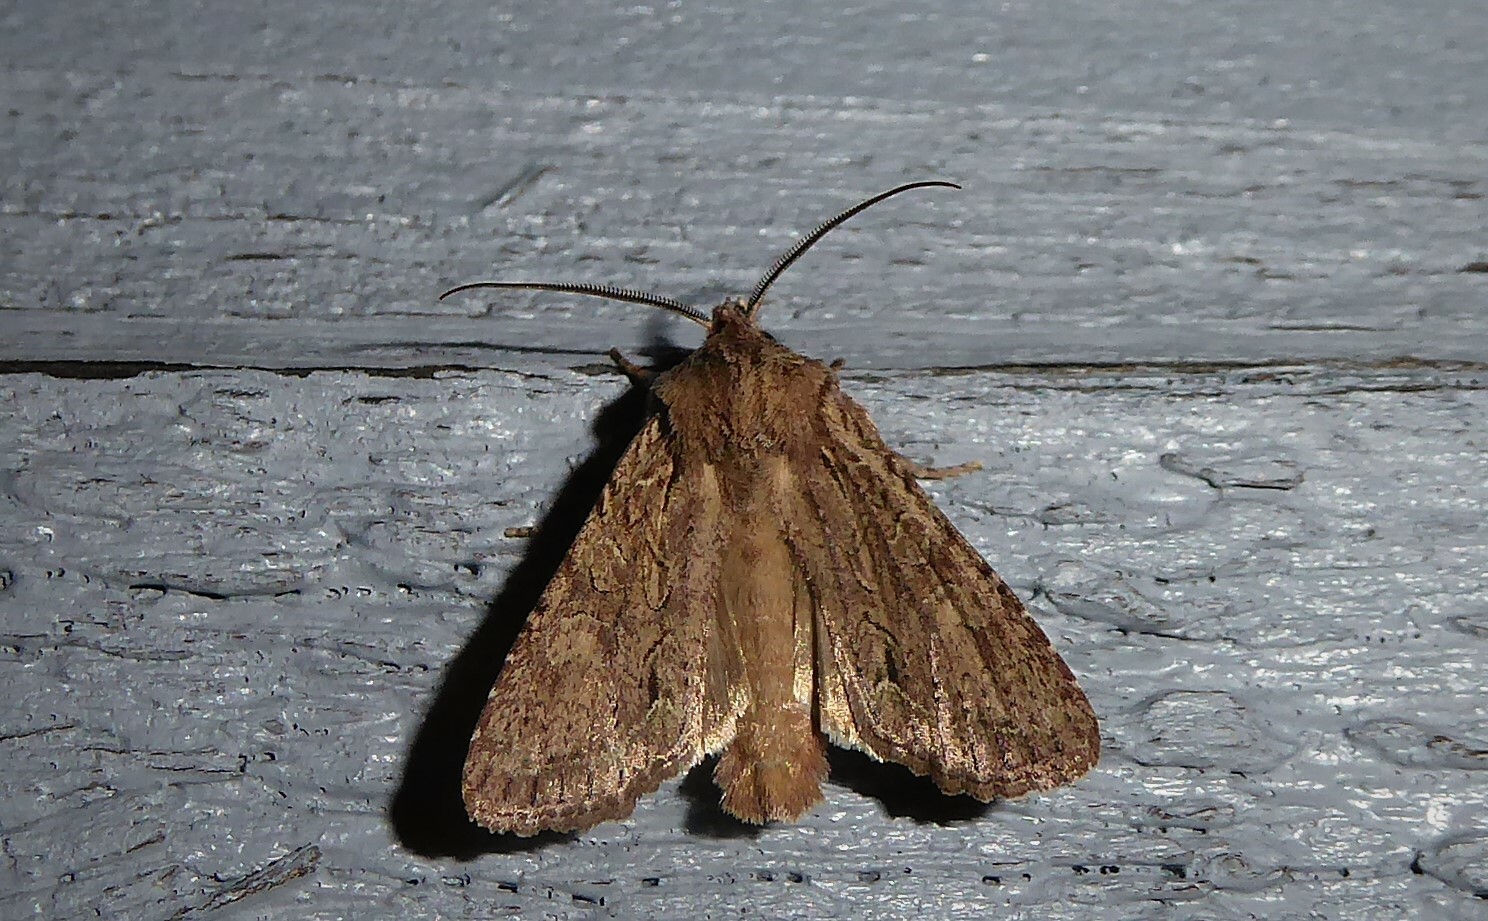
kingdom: Animalia
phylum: Arthropoda
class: Insecta
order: Lepidoptera
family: Noctuidae
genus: Ichneutica
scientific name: Ichneutica
